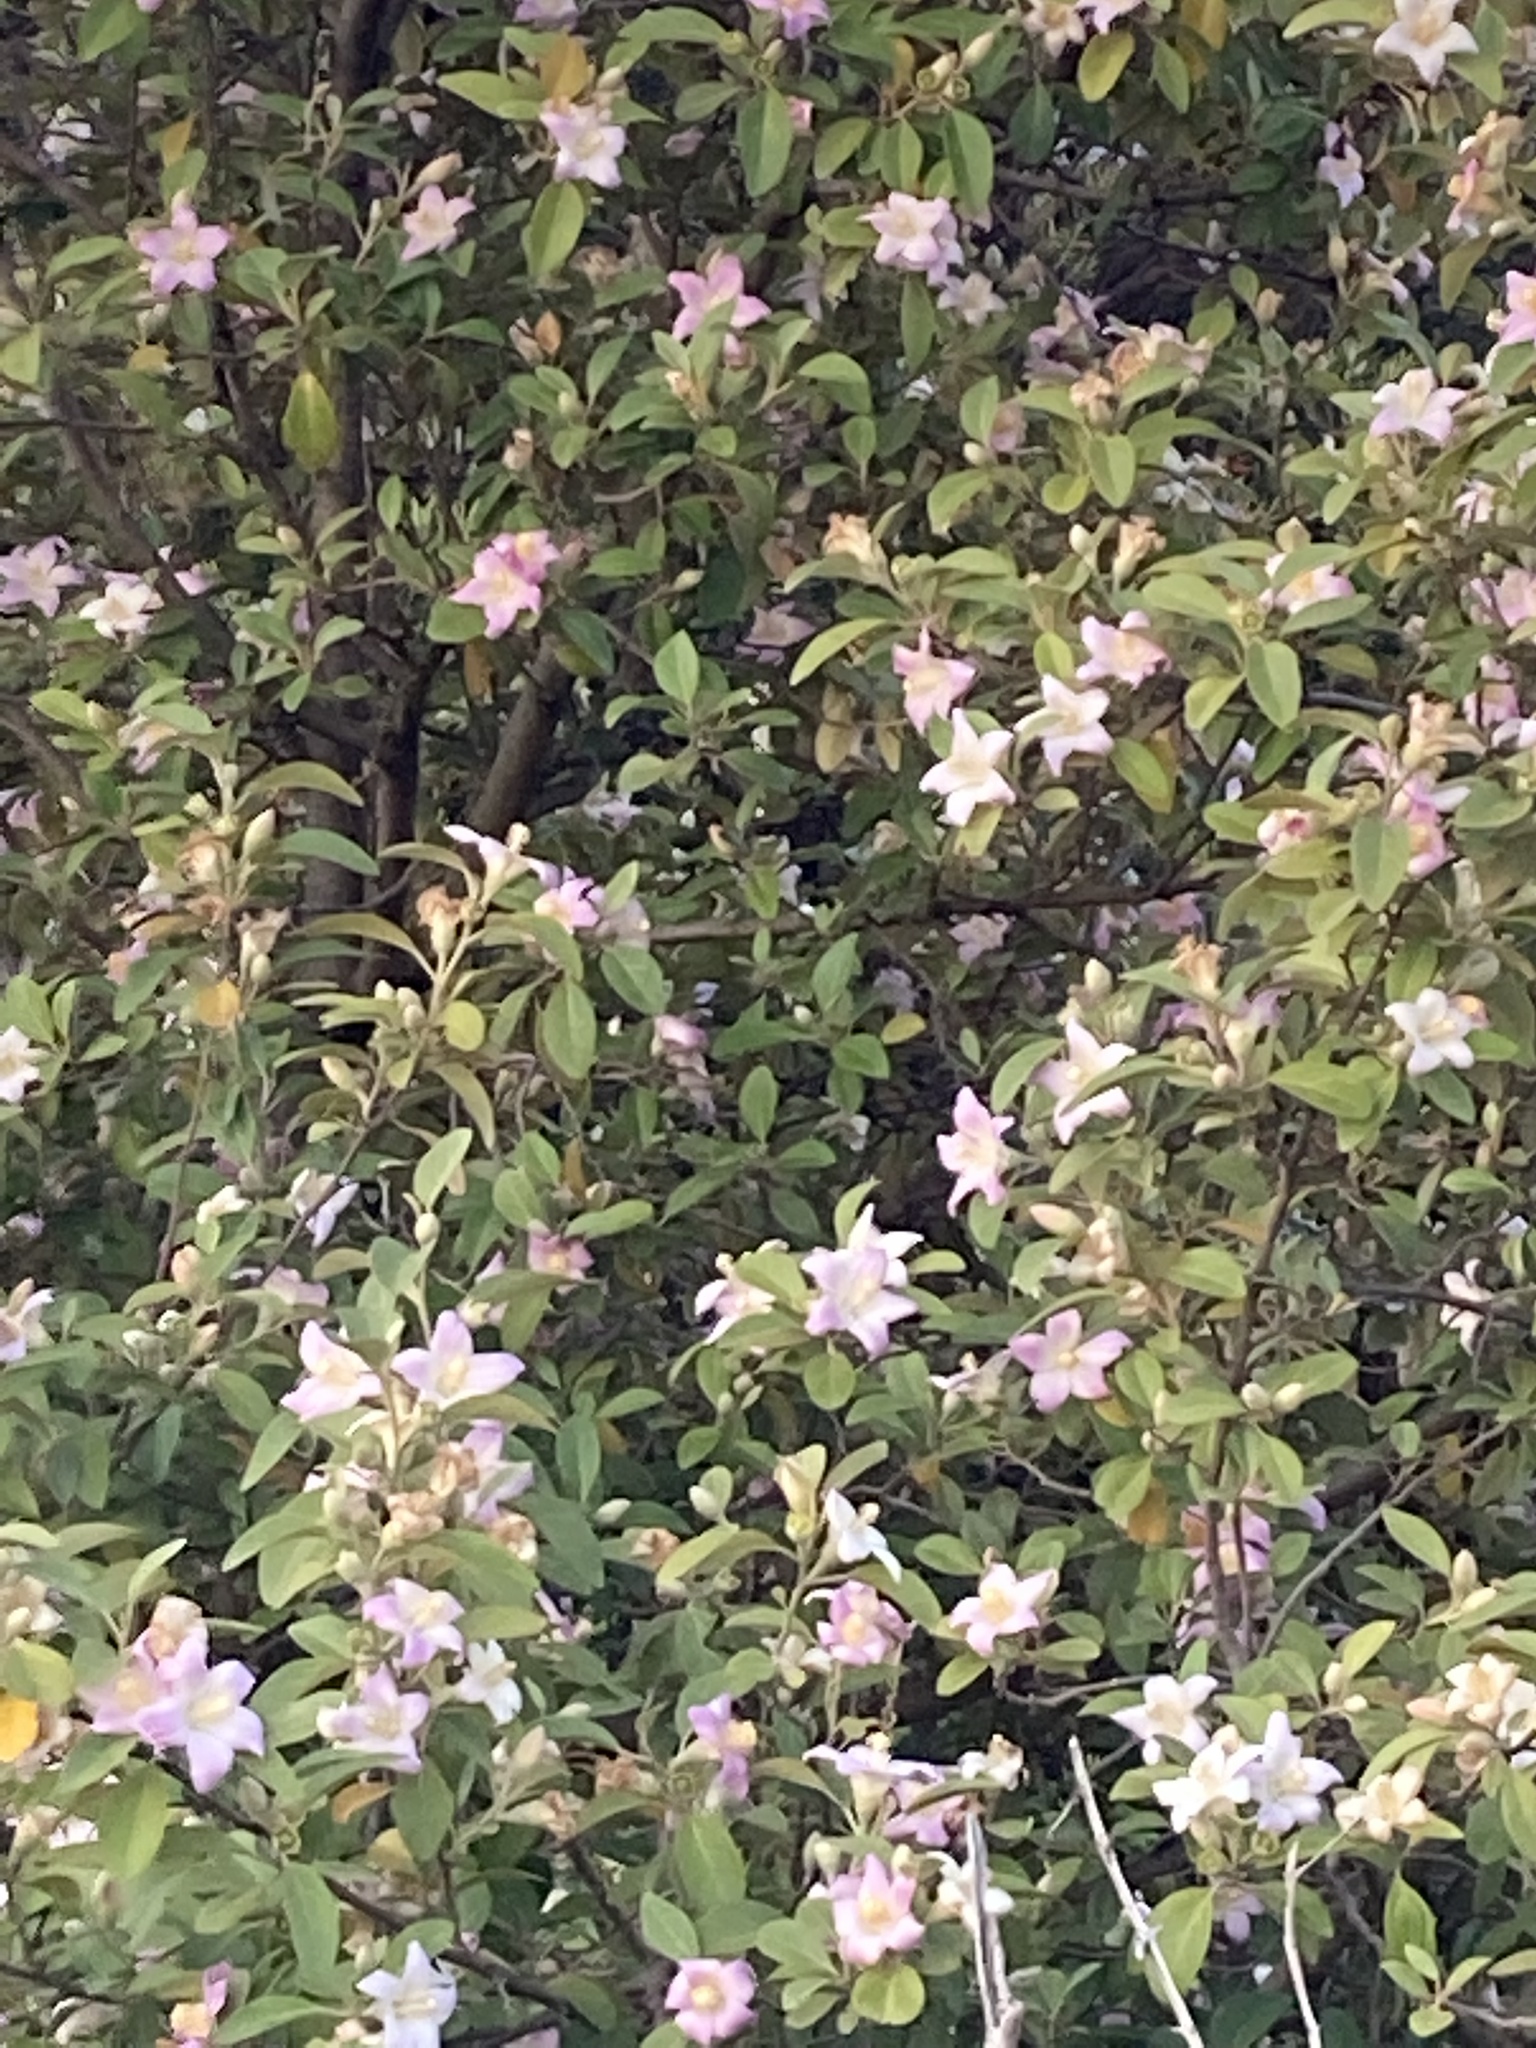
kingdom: Plantae
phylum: Tracheophyta
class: Magnoliopsida
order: Malvales
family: Malvaceae
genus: Lagunaria
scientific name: Lagunaria patersonia
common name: Cow itch tree
